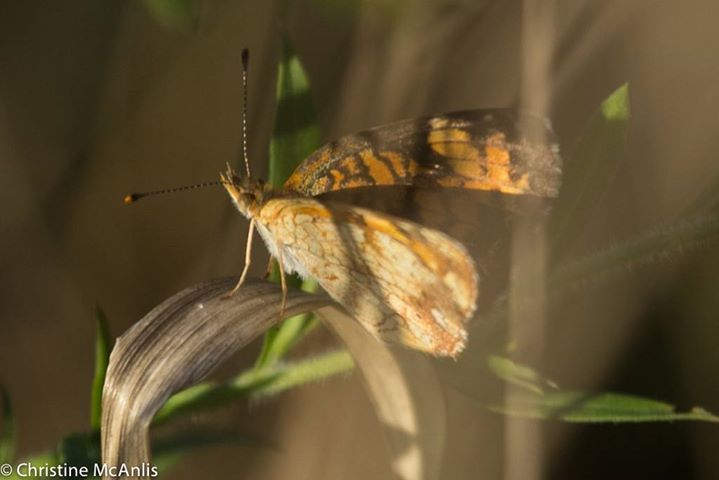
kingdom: Animalia
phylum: Arthropoda
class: Insecta
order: Lepidoptera
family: Nymphalidae
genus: Phyciodes
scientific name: Phyciodes tharos
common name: Pearl crescent
